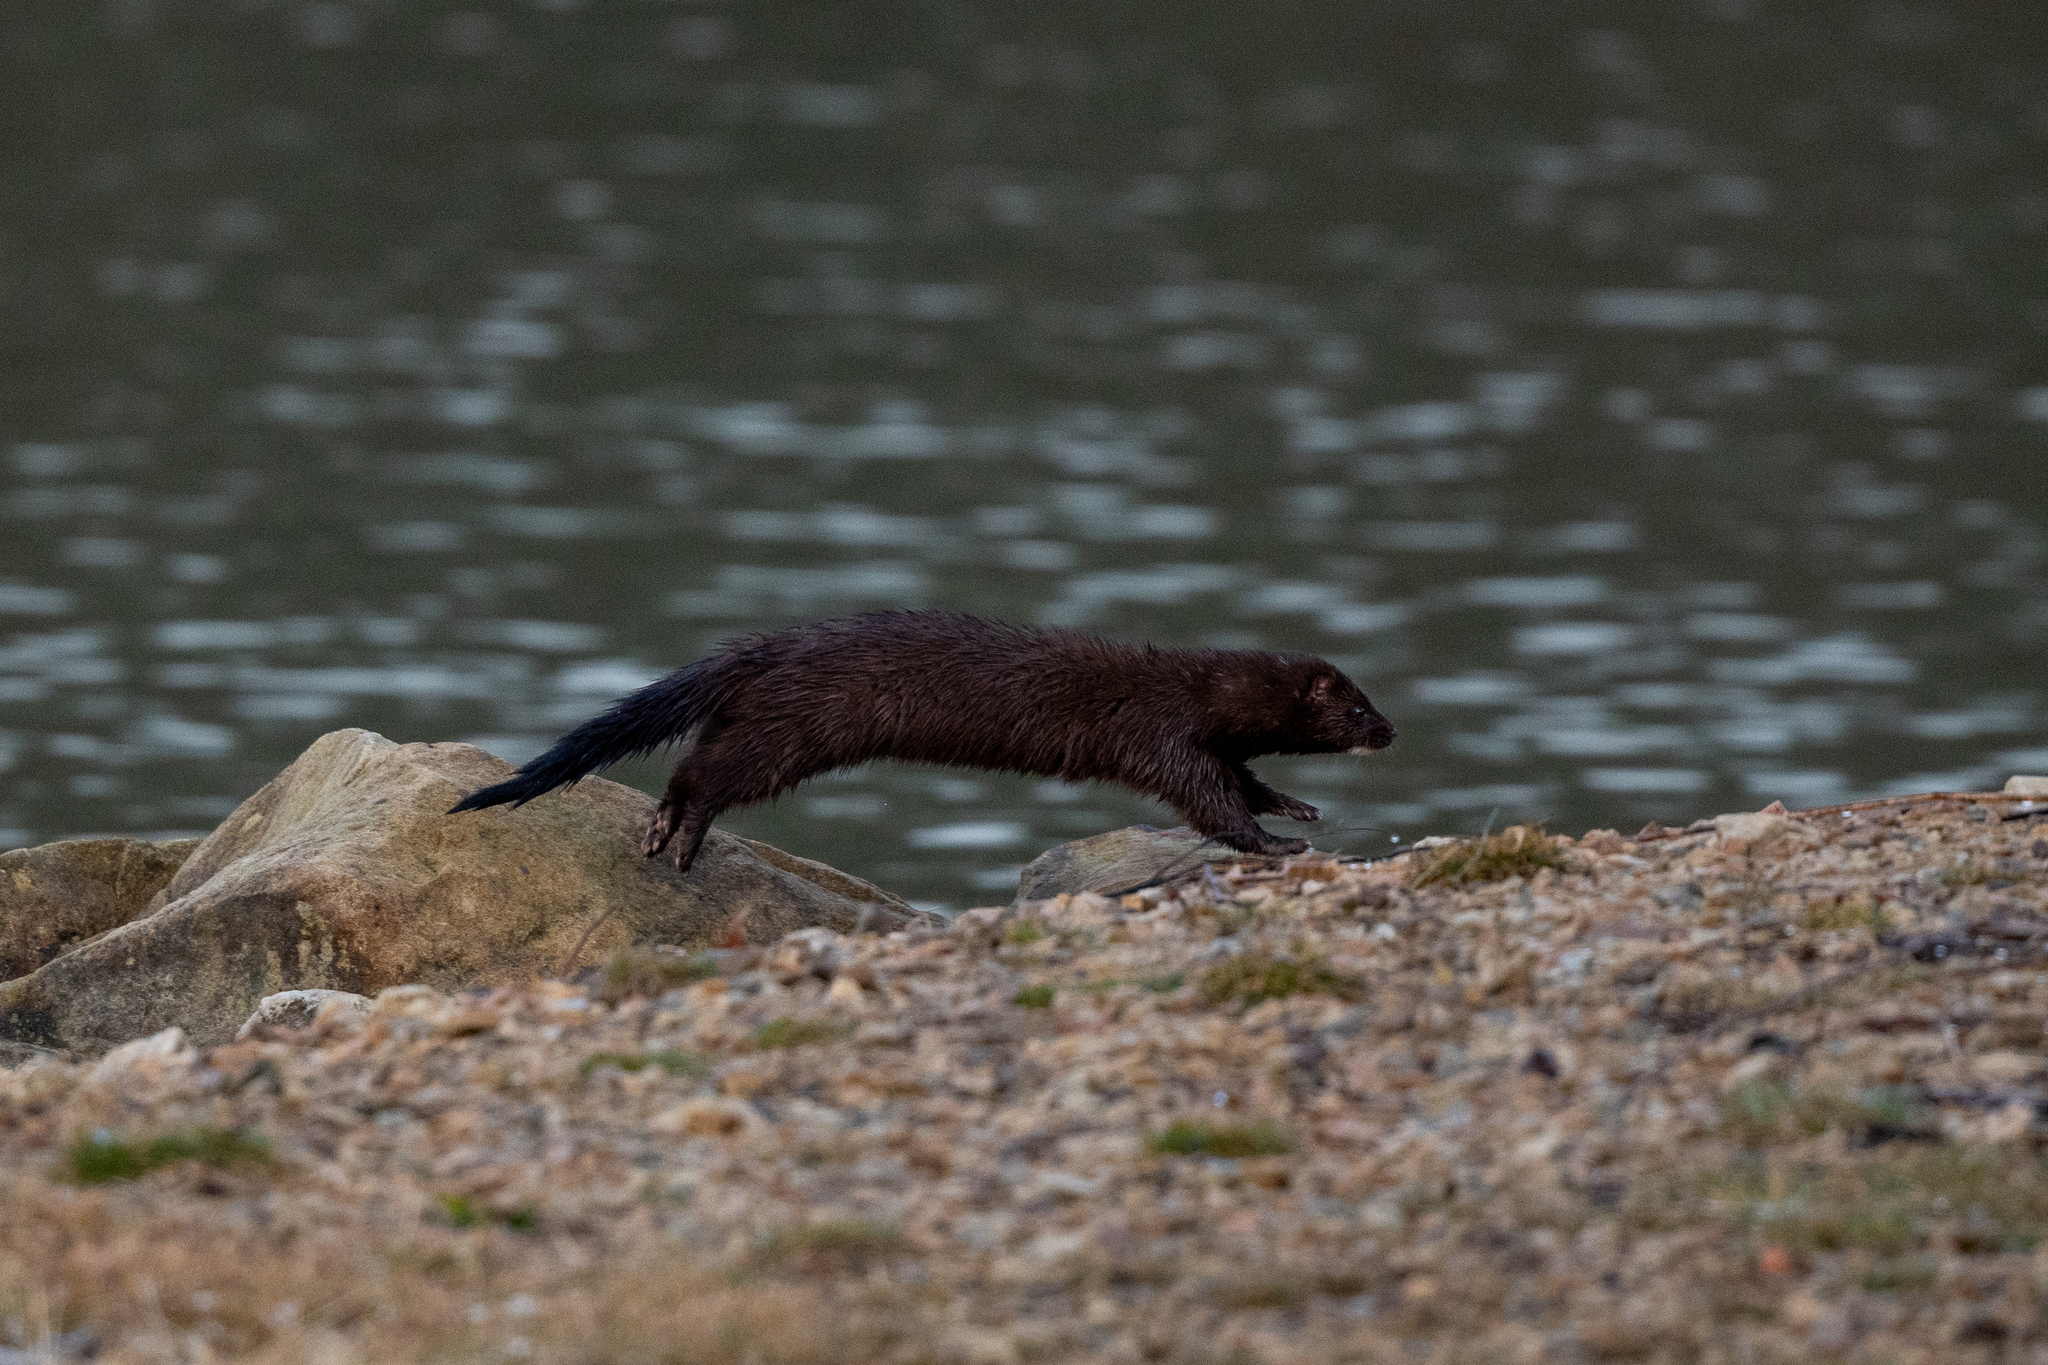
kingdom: Animalia
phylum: Chordata
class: Mammalia
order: Carnivora
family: Mustelidae
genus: Mustela
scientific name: Mustela
